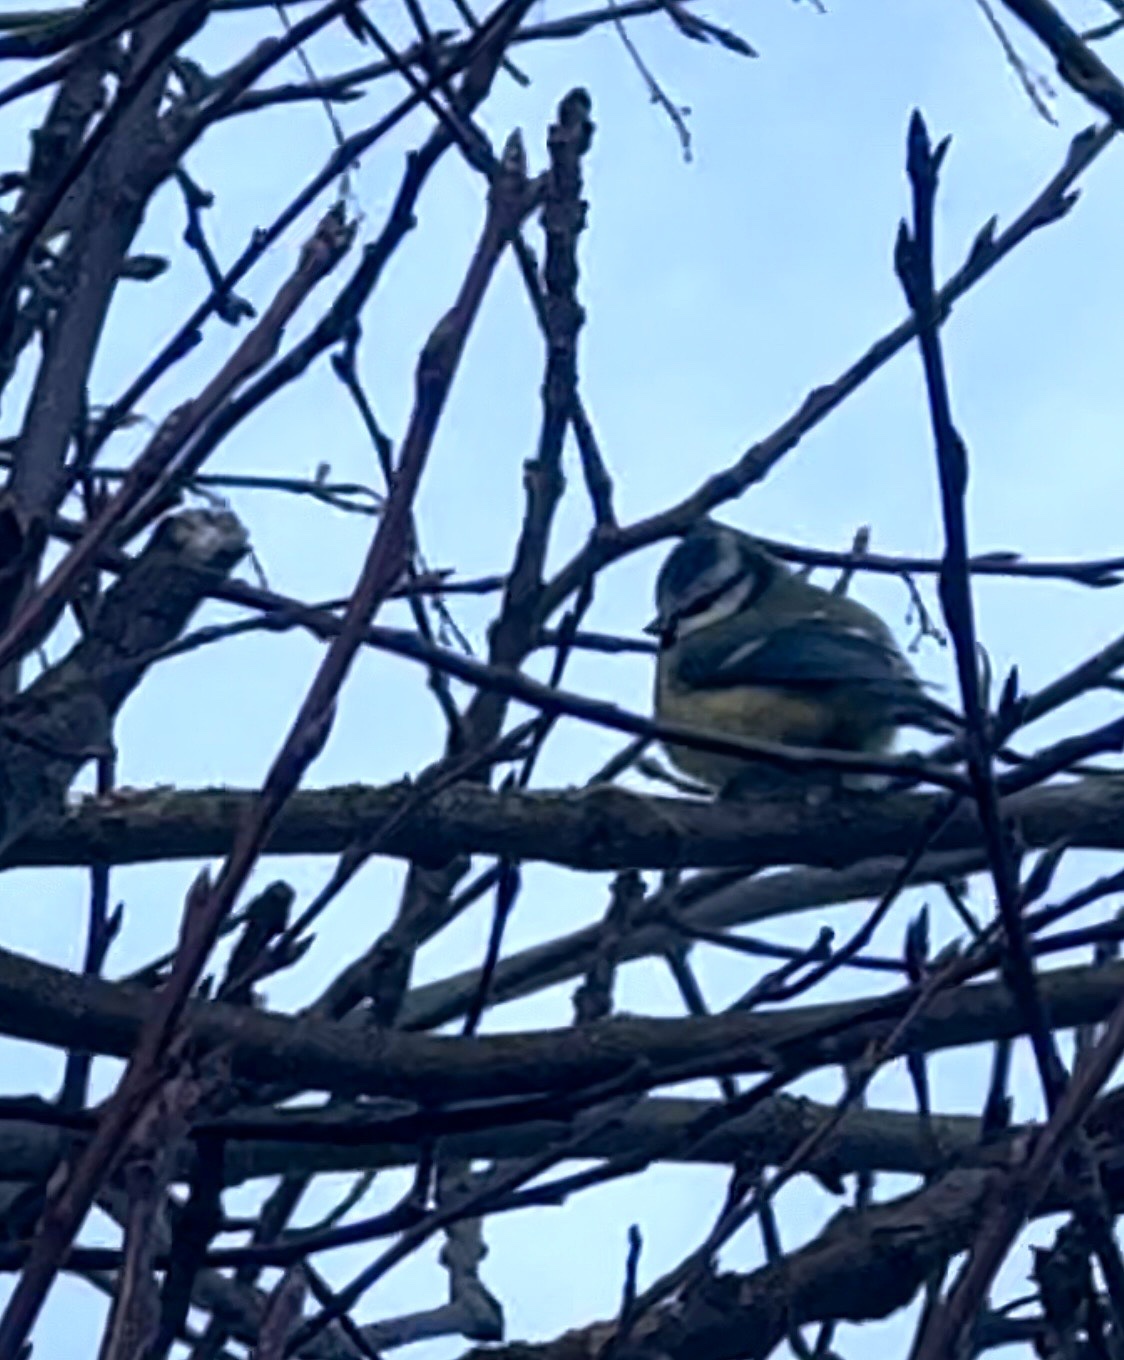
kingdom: Animalia
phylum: Chordata
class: Aves
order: Passeriformes
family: Paridae
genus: Cyanistes
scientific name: Cyanistes caeruleus
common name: Eurasian blue tit
